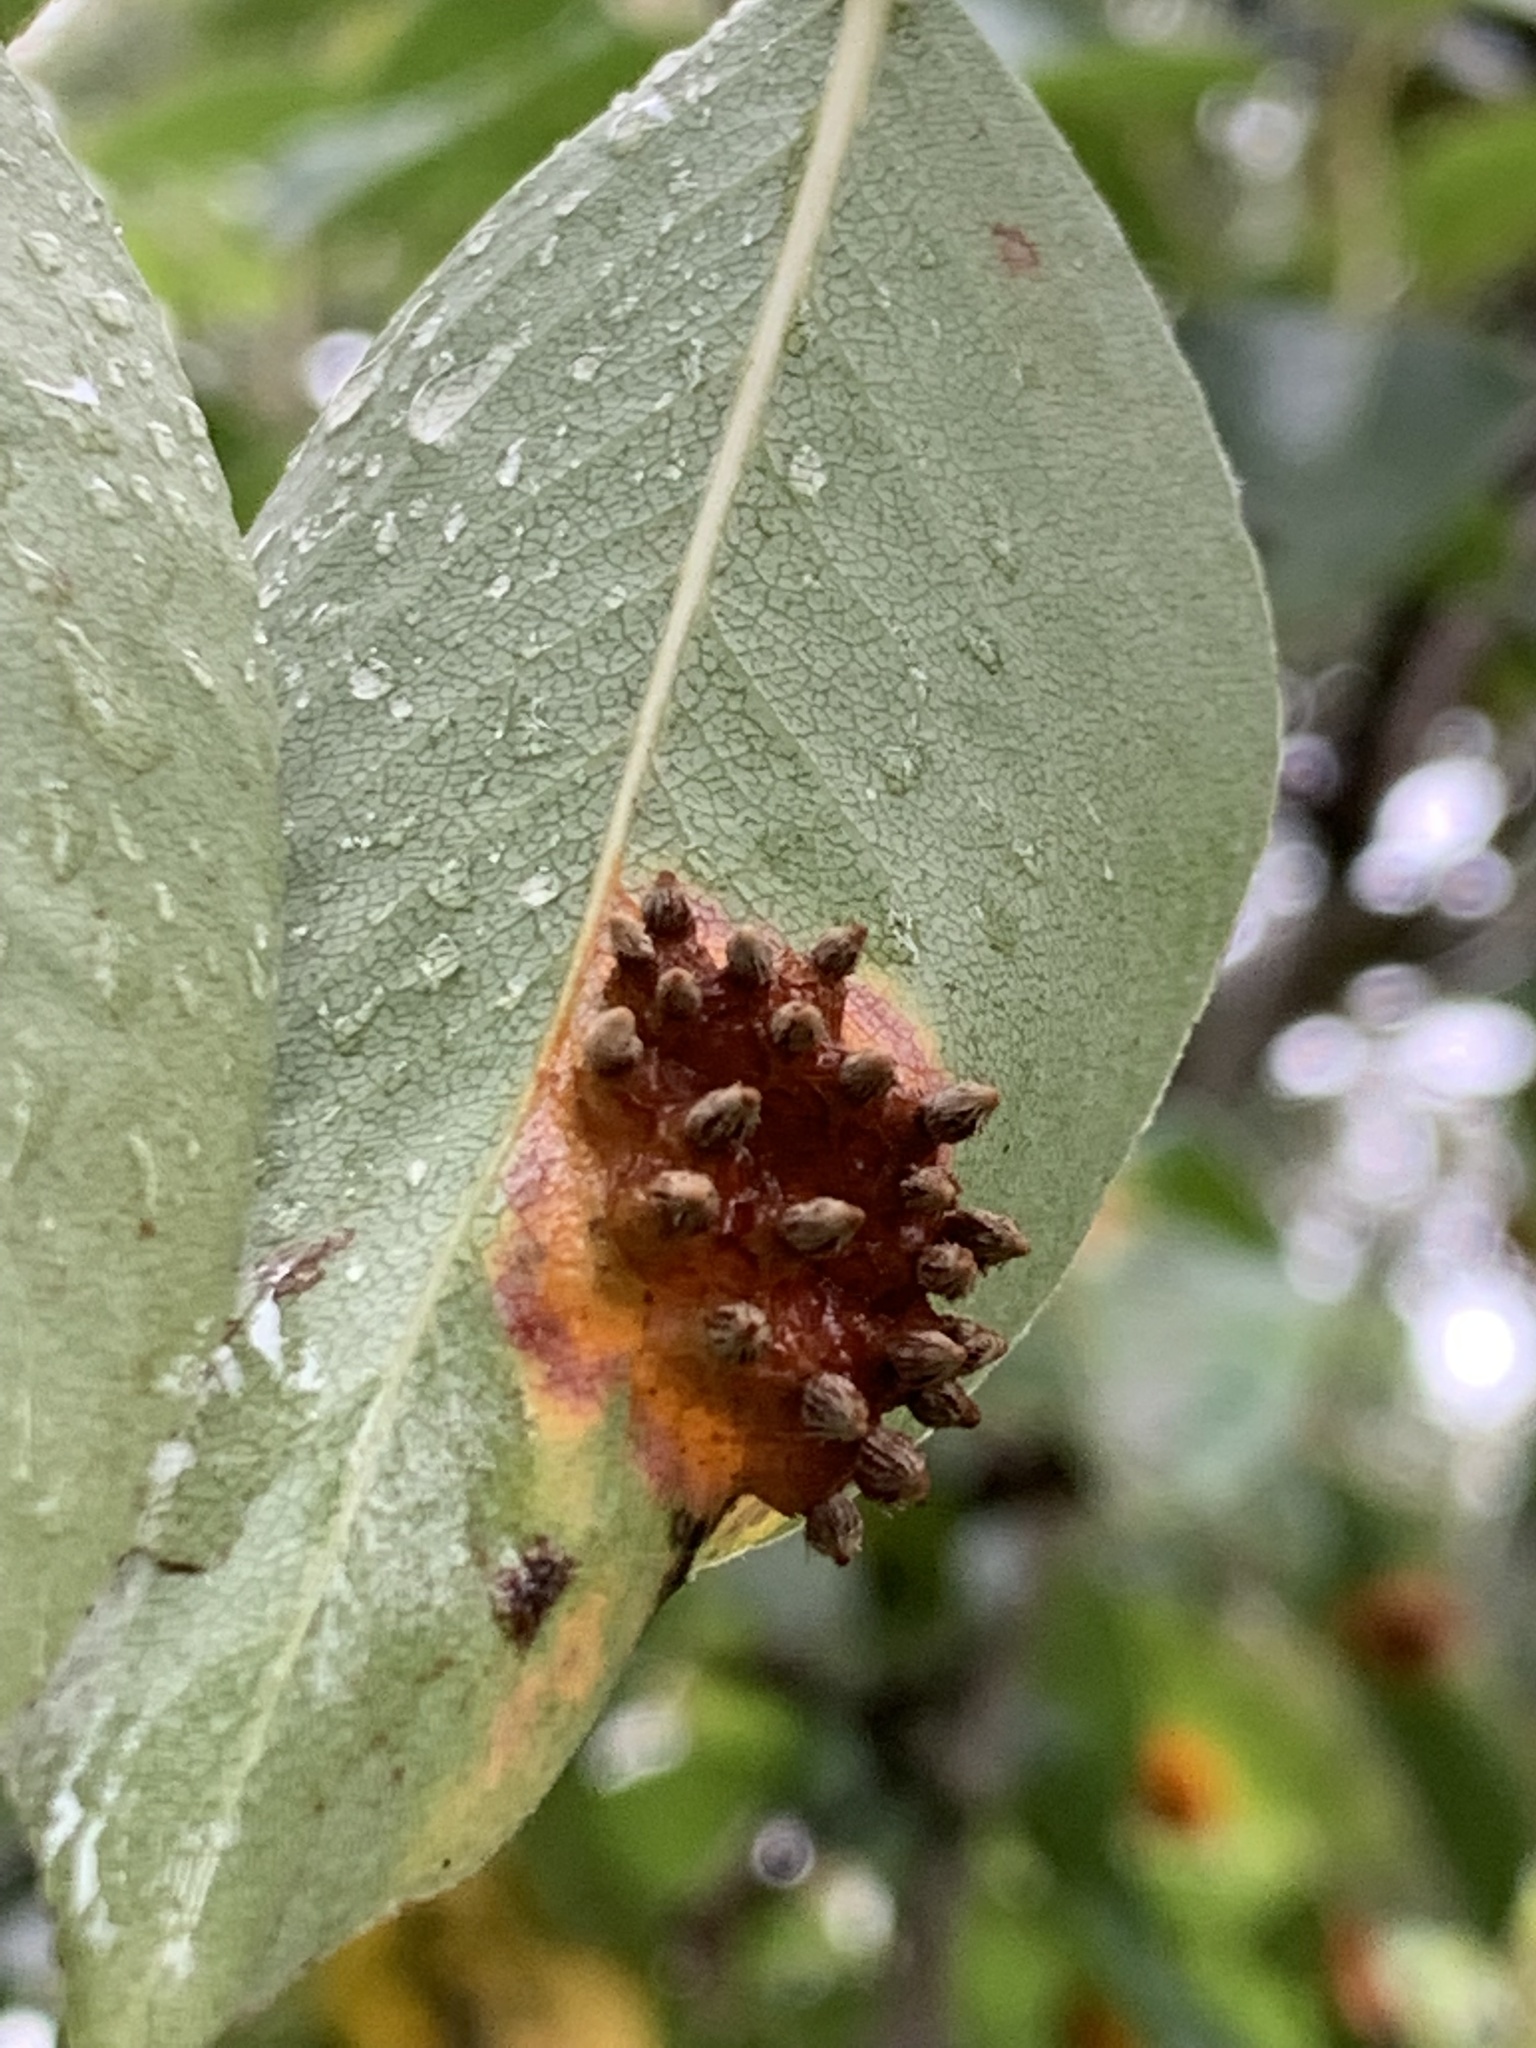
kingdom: Fungi
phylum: Basidiomycota
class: Pucciniomycetes
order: Pucciniales
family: Gymnosporangiaceae
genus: Gymnosporangium
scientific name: Gymnosporangium sabinae
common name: Pear trellis rust fungus
